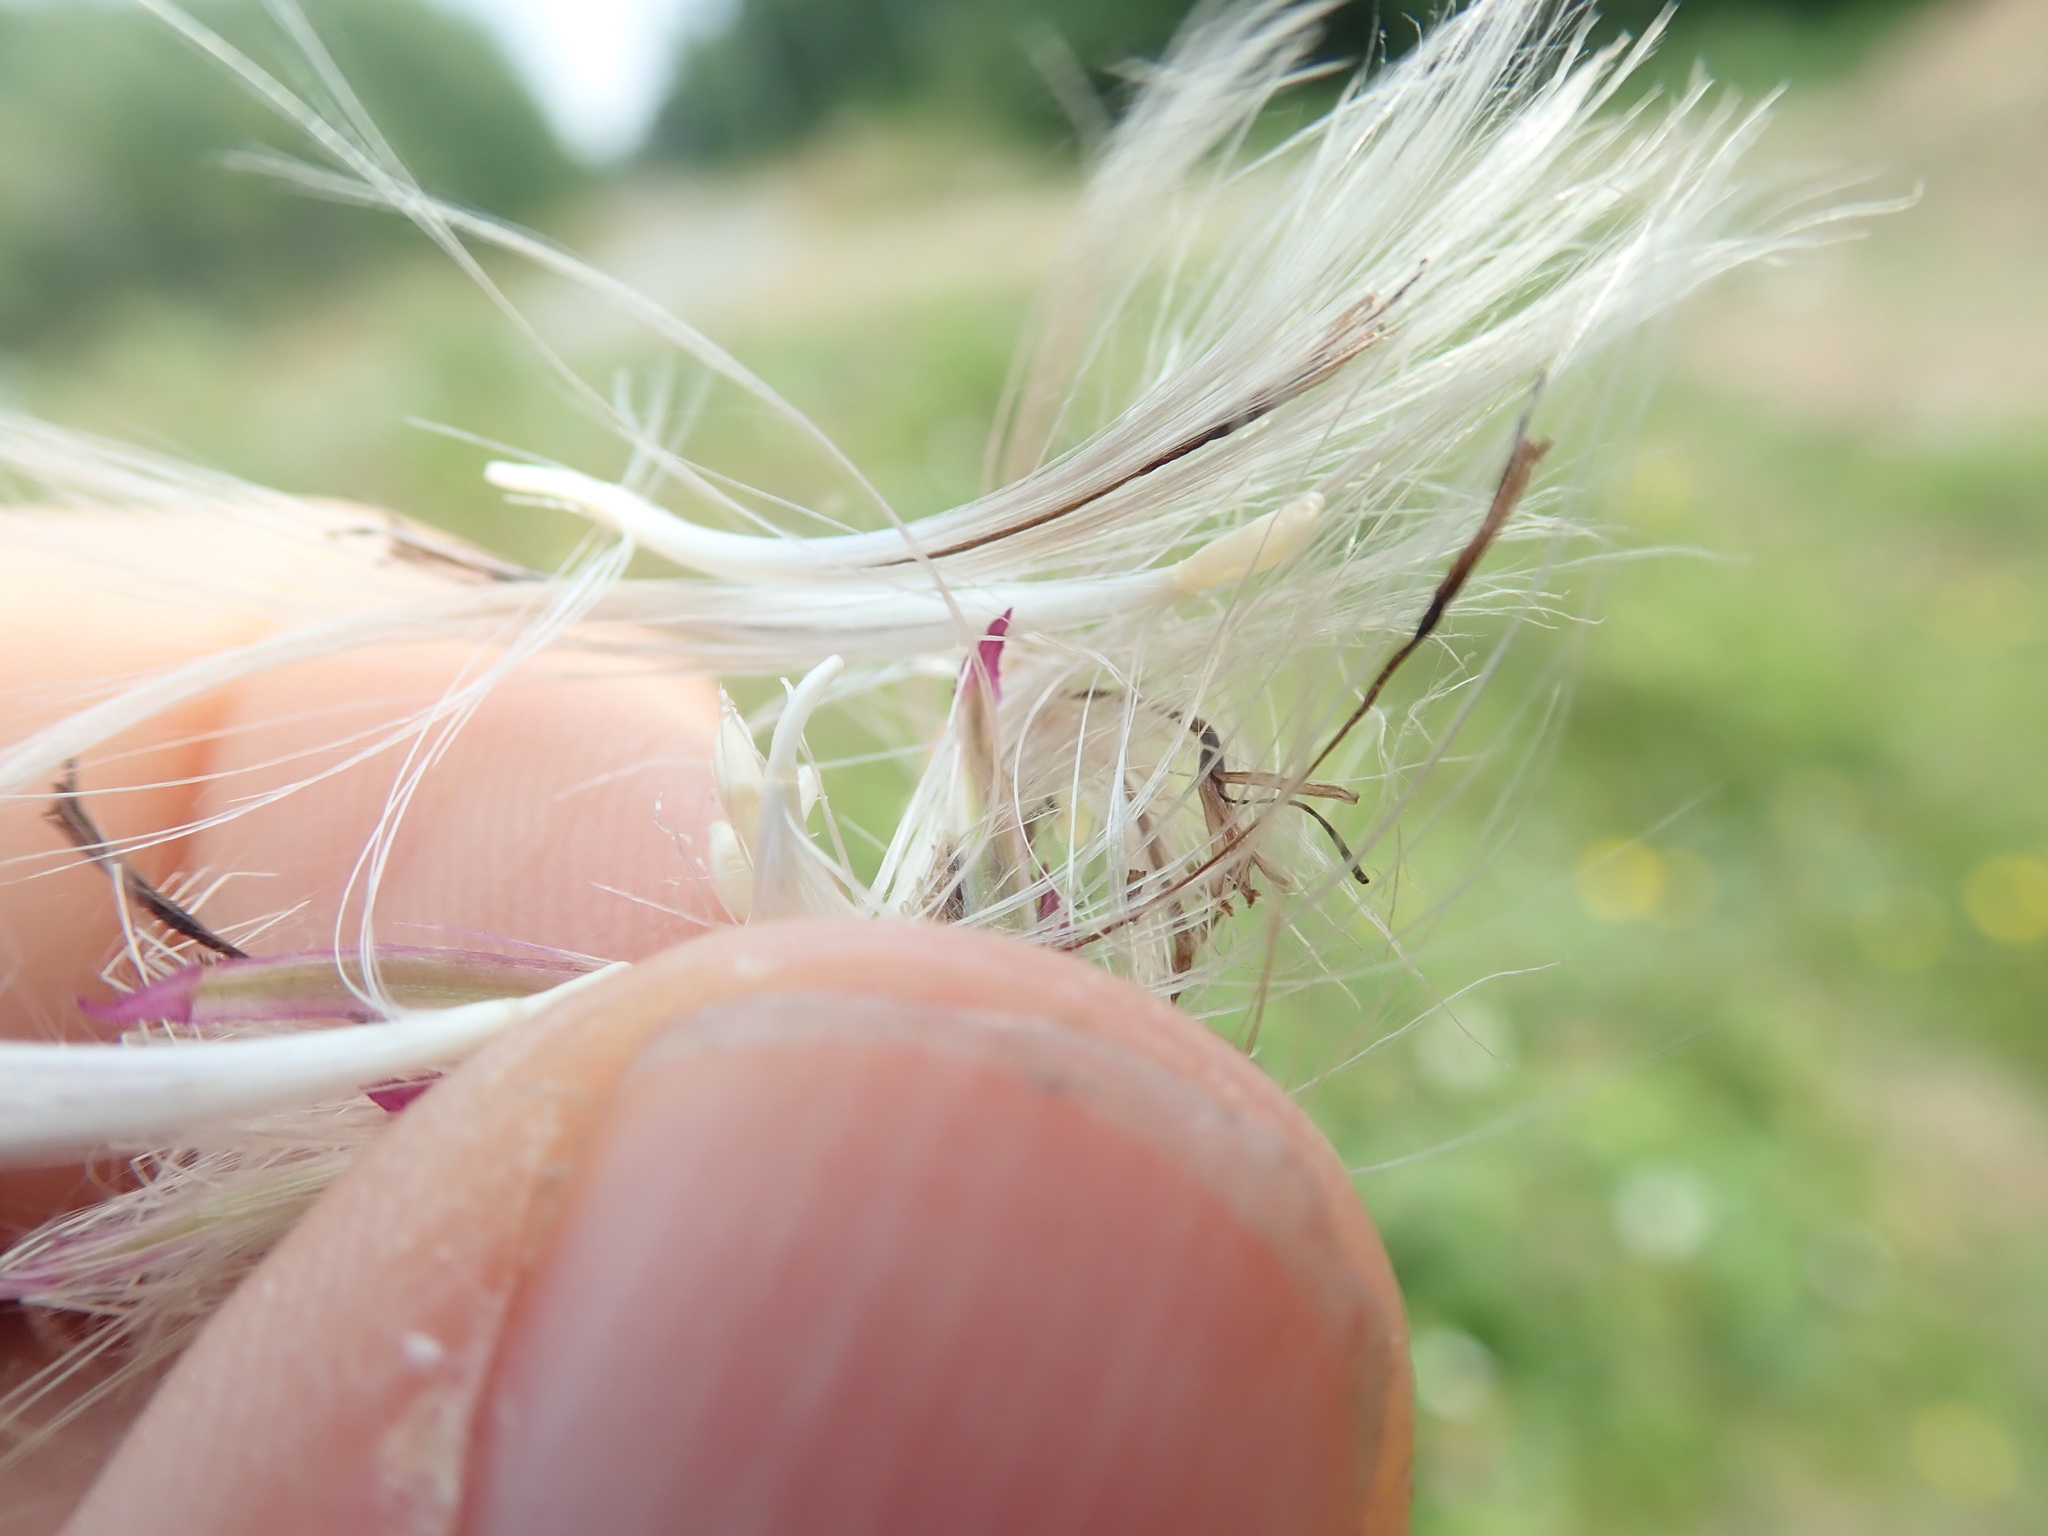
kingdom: Plantae
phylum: Tracheophyta
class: Magnoliopsida
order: Asterales
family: Asteraceae
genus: Cirsium
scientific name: Cirsium arvense
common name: Creeping thistle
